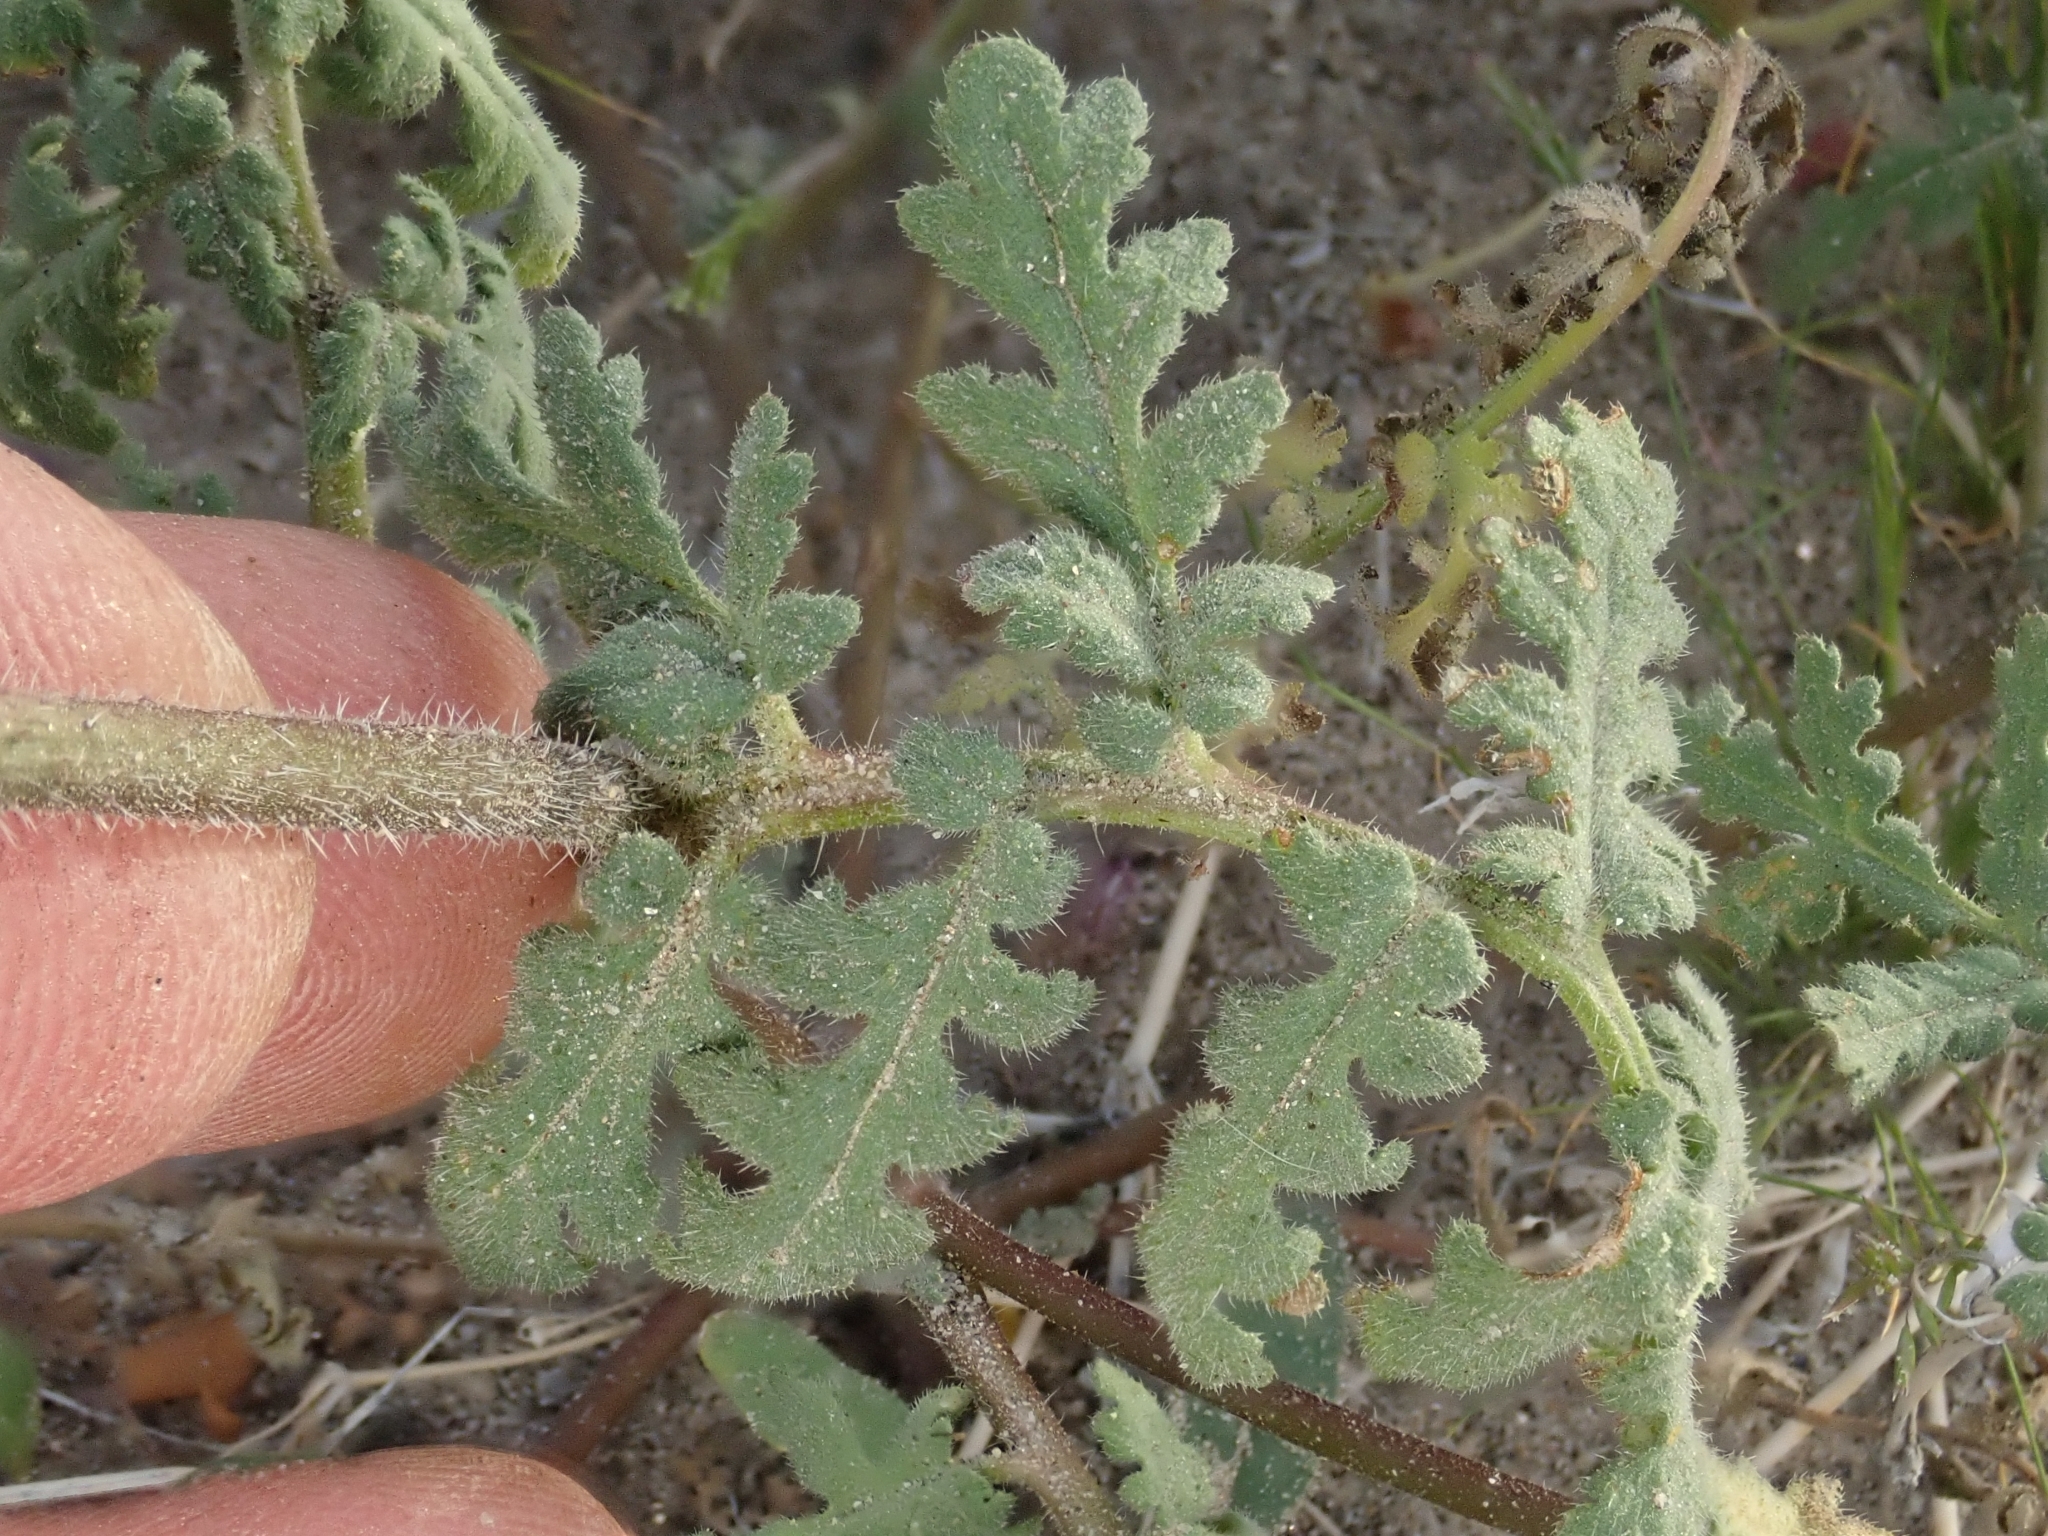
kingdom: Plantae
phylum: Tracheophyta
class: Magnoliopsida
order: Boraginales
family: Hydrophyllaceae
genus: Phacelia
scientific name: Phacelia distans
